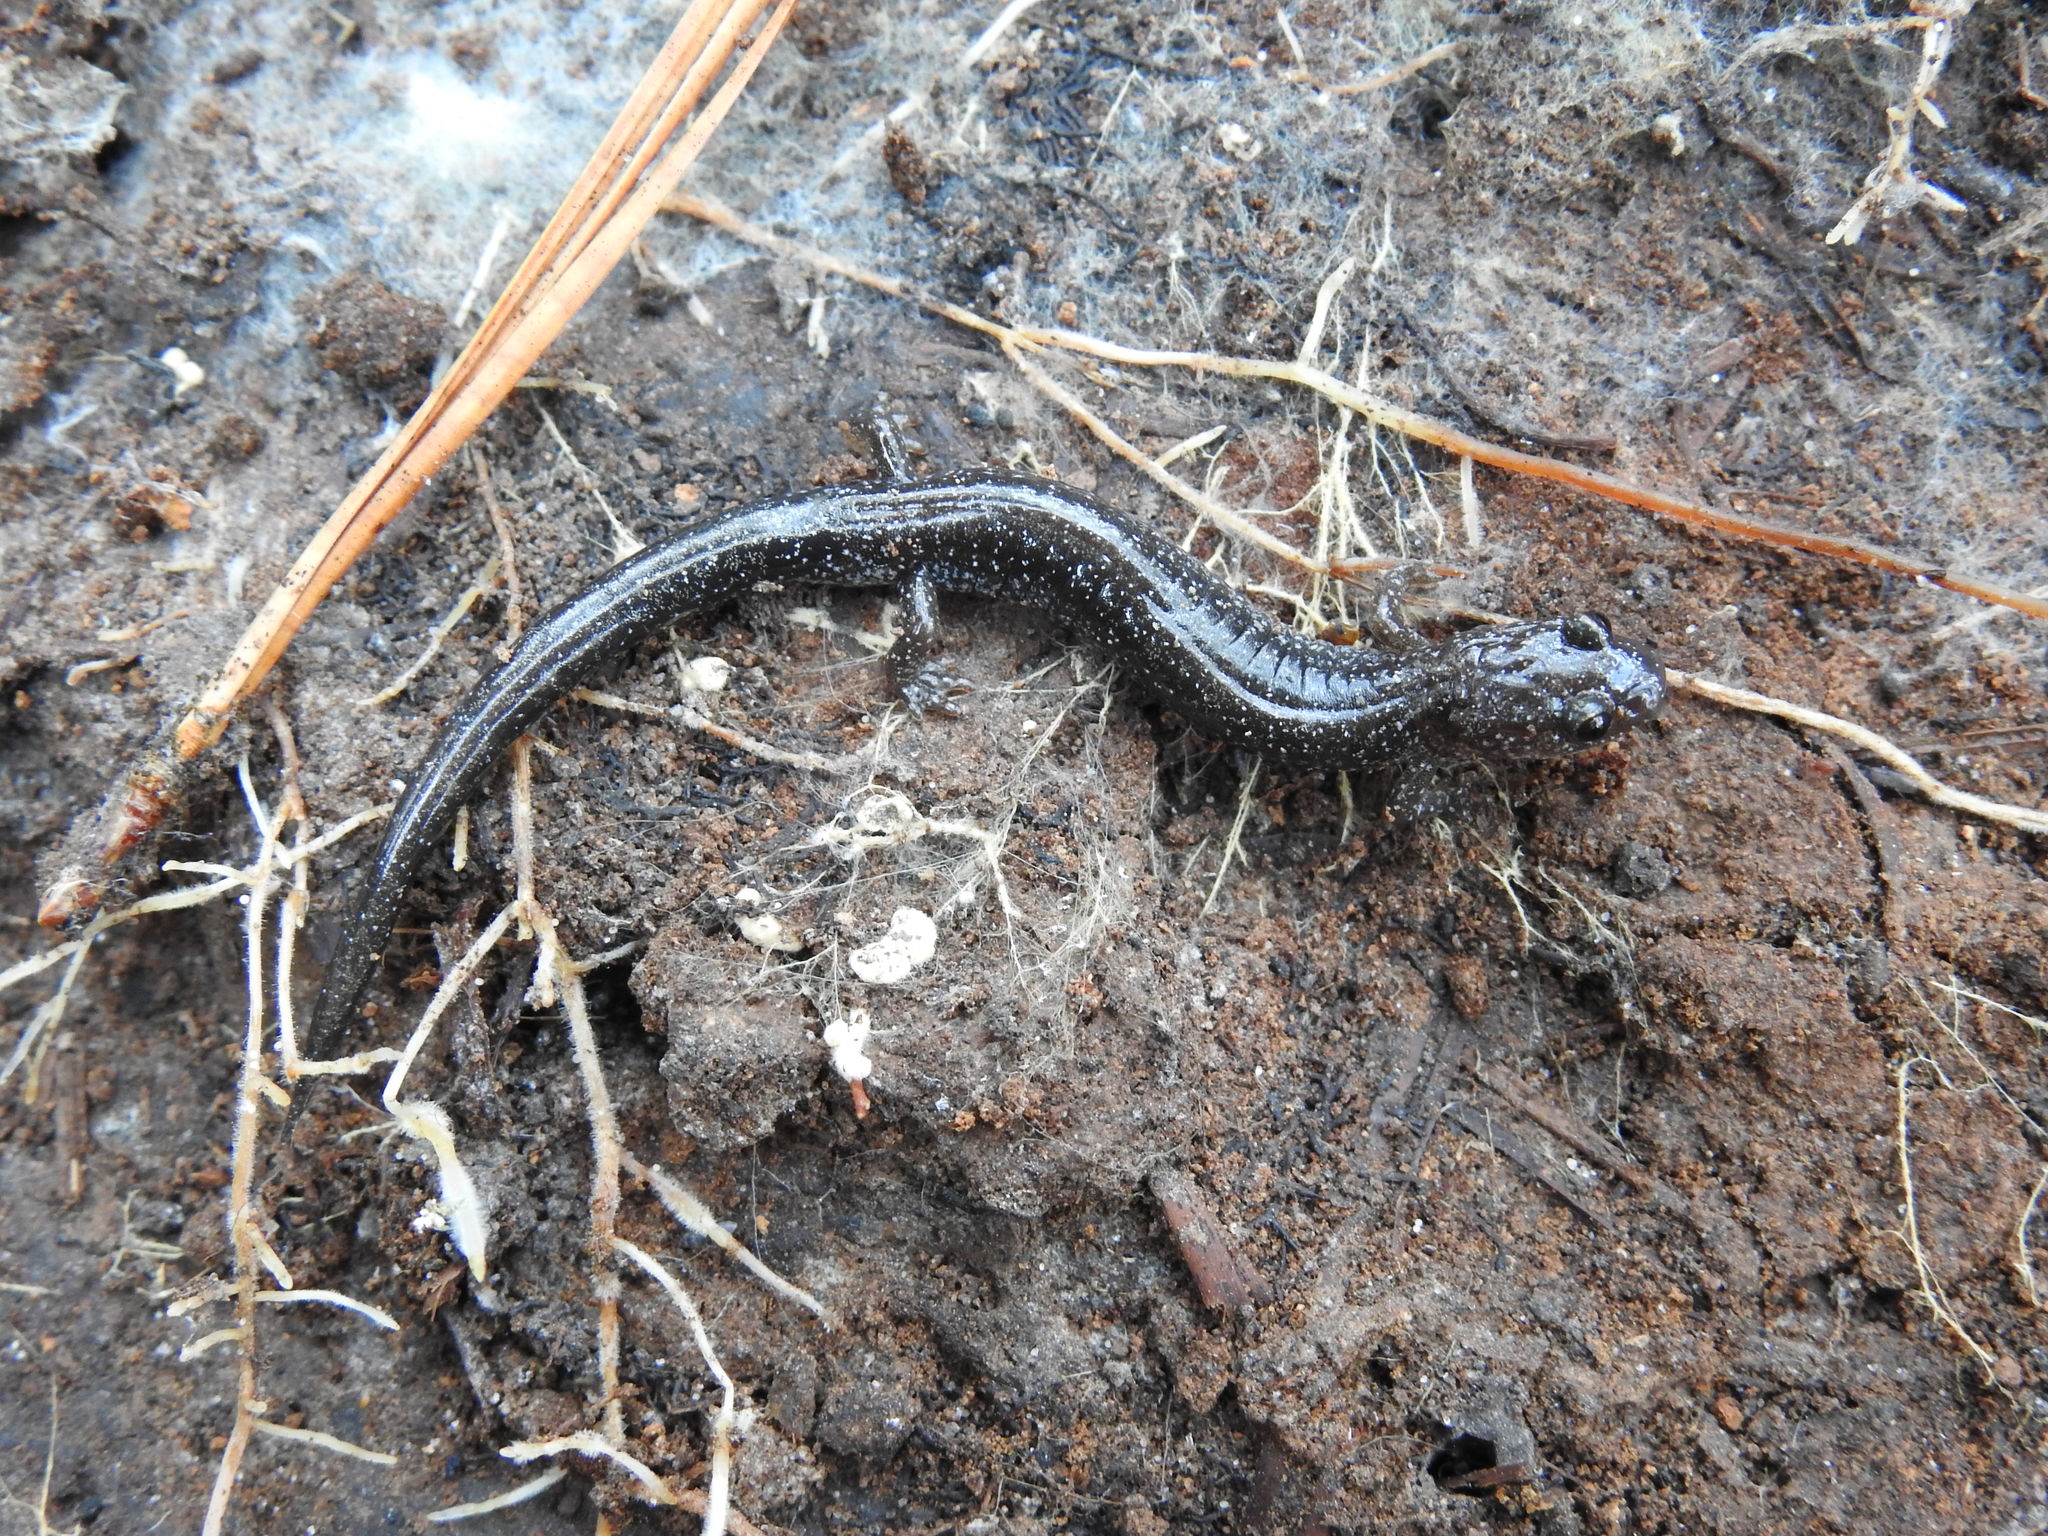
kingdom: Animalia
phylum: Chordata
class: Amphibia
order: Caudata
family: Plethodontidae
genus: Plethodon
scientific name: Plethodon cinereus
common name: Redback salamander
